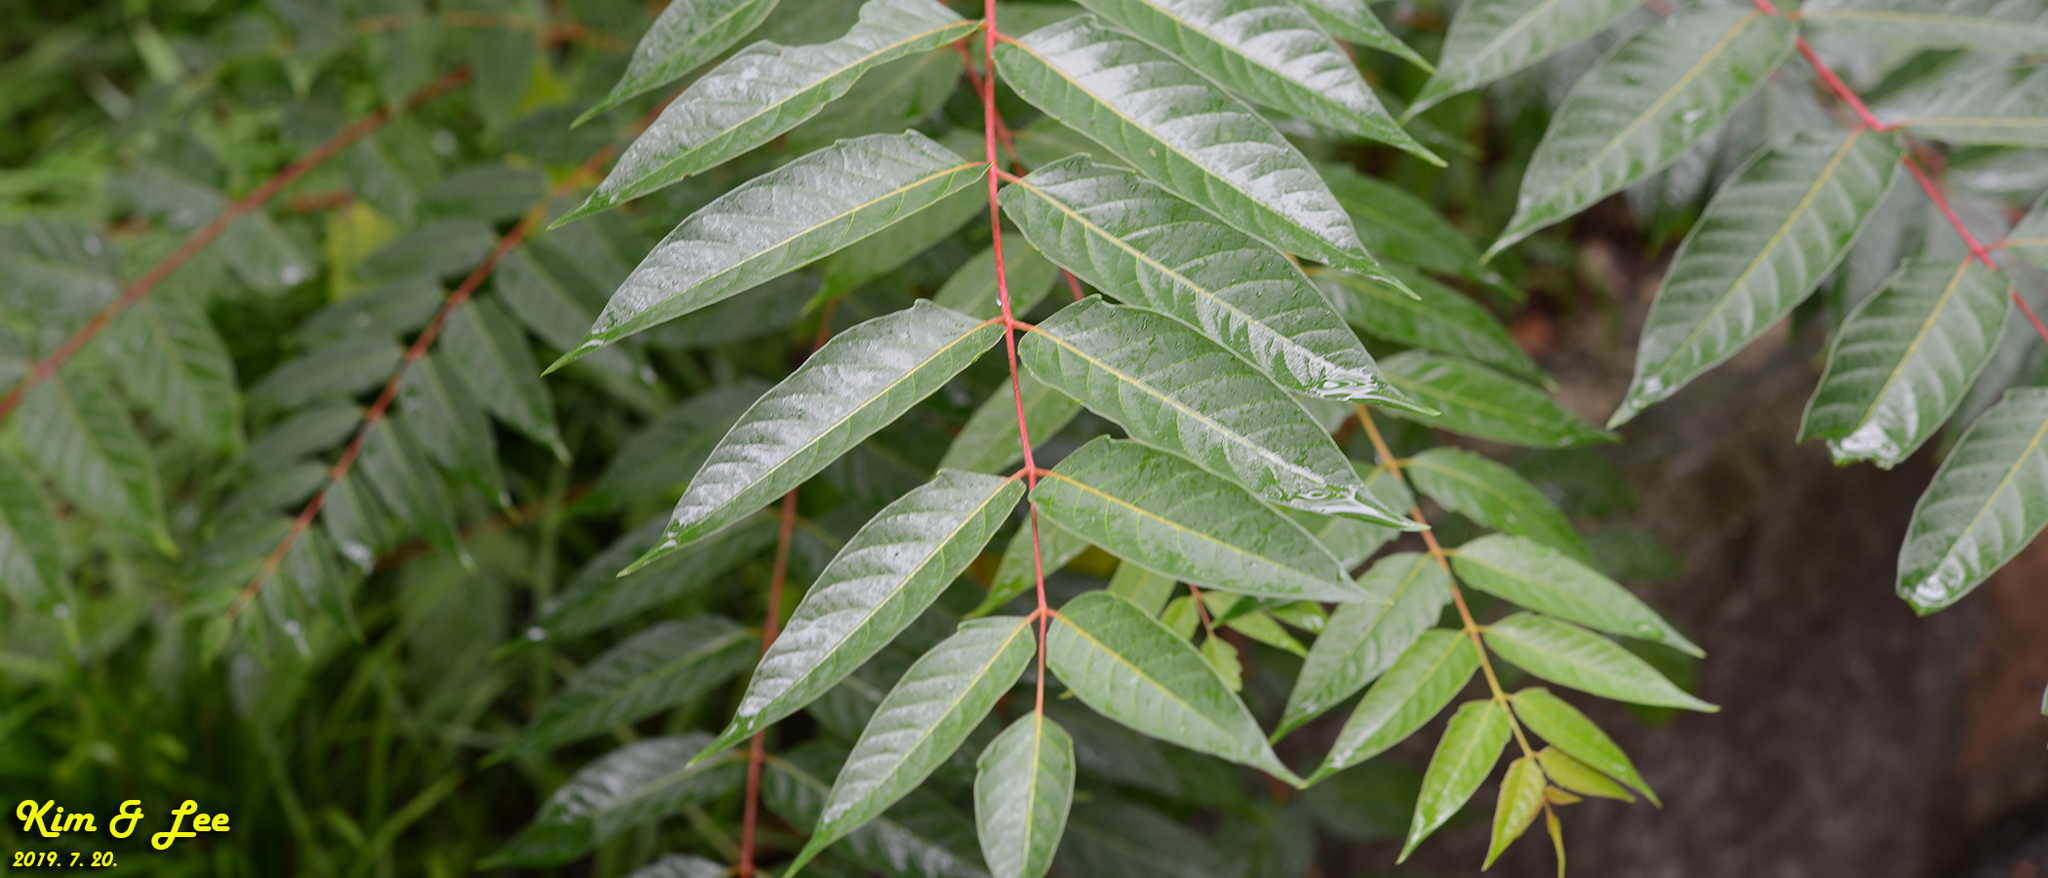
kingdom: Plantae
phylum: Tracheophyta
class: Magnoliopsida
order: Sapindales
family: Simaroubaceae
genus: Ailanthus
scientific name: Ailanthus altissima
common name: Tree-of-heaven
